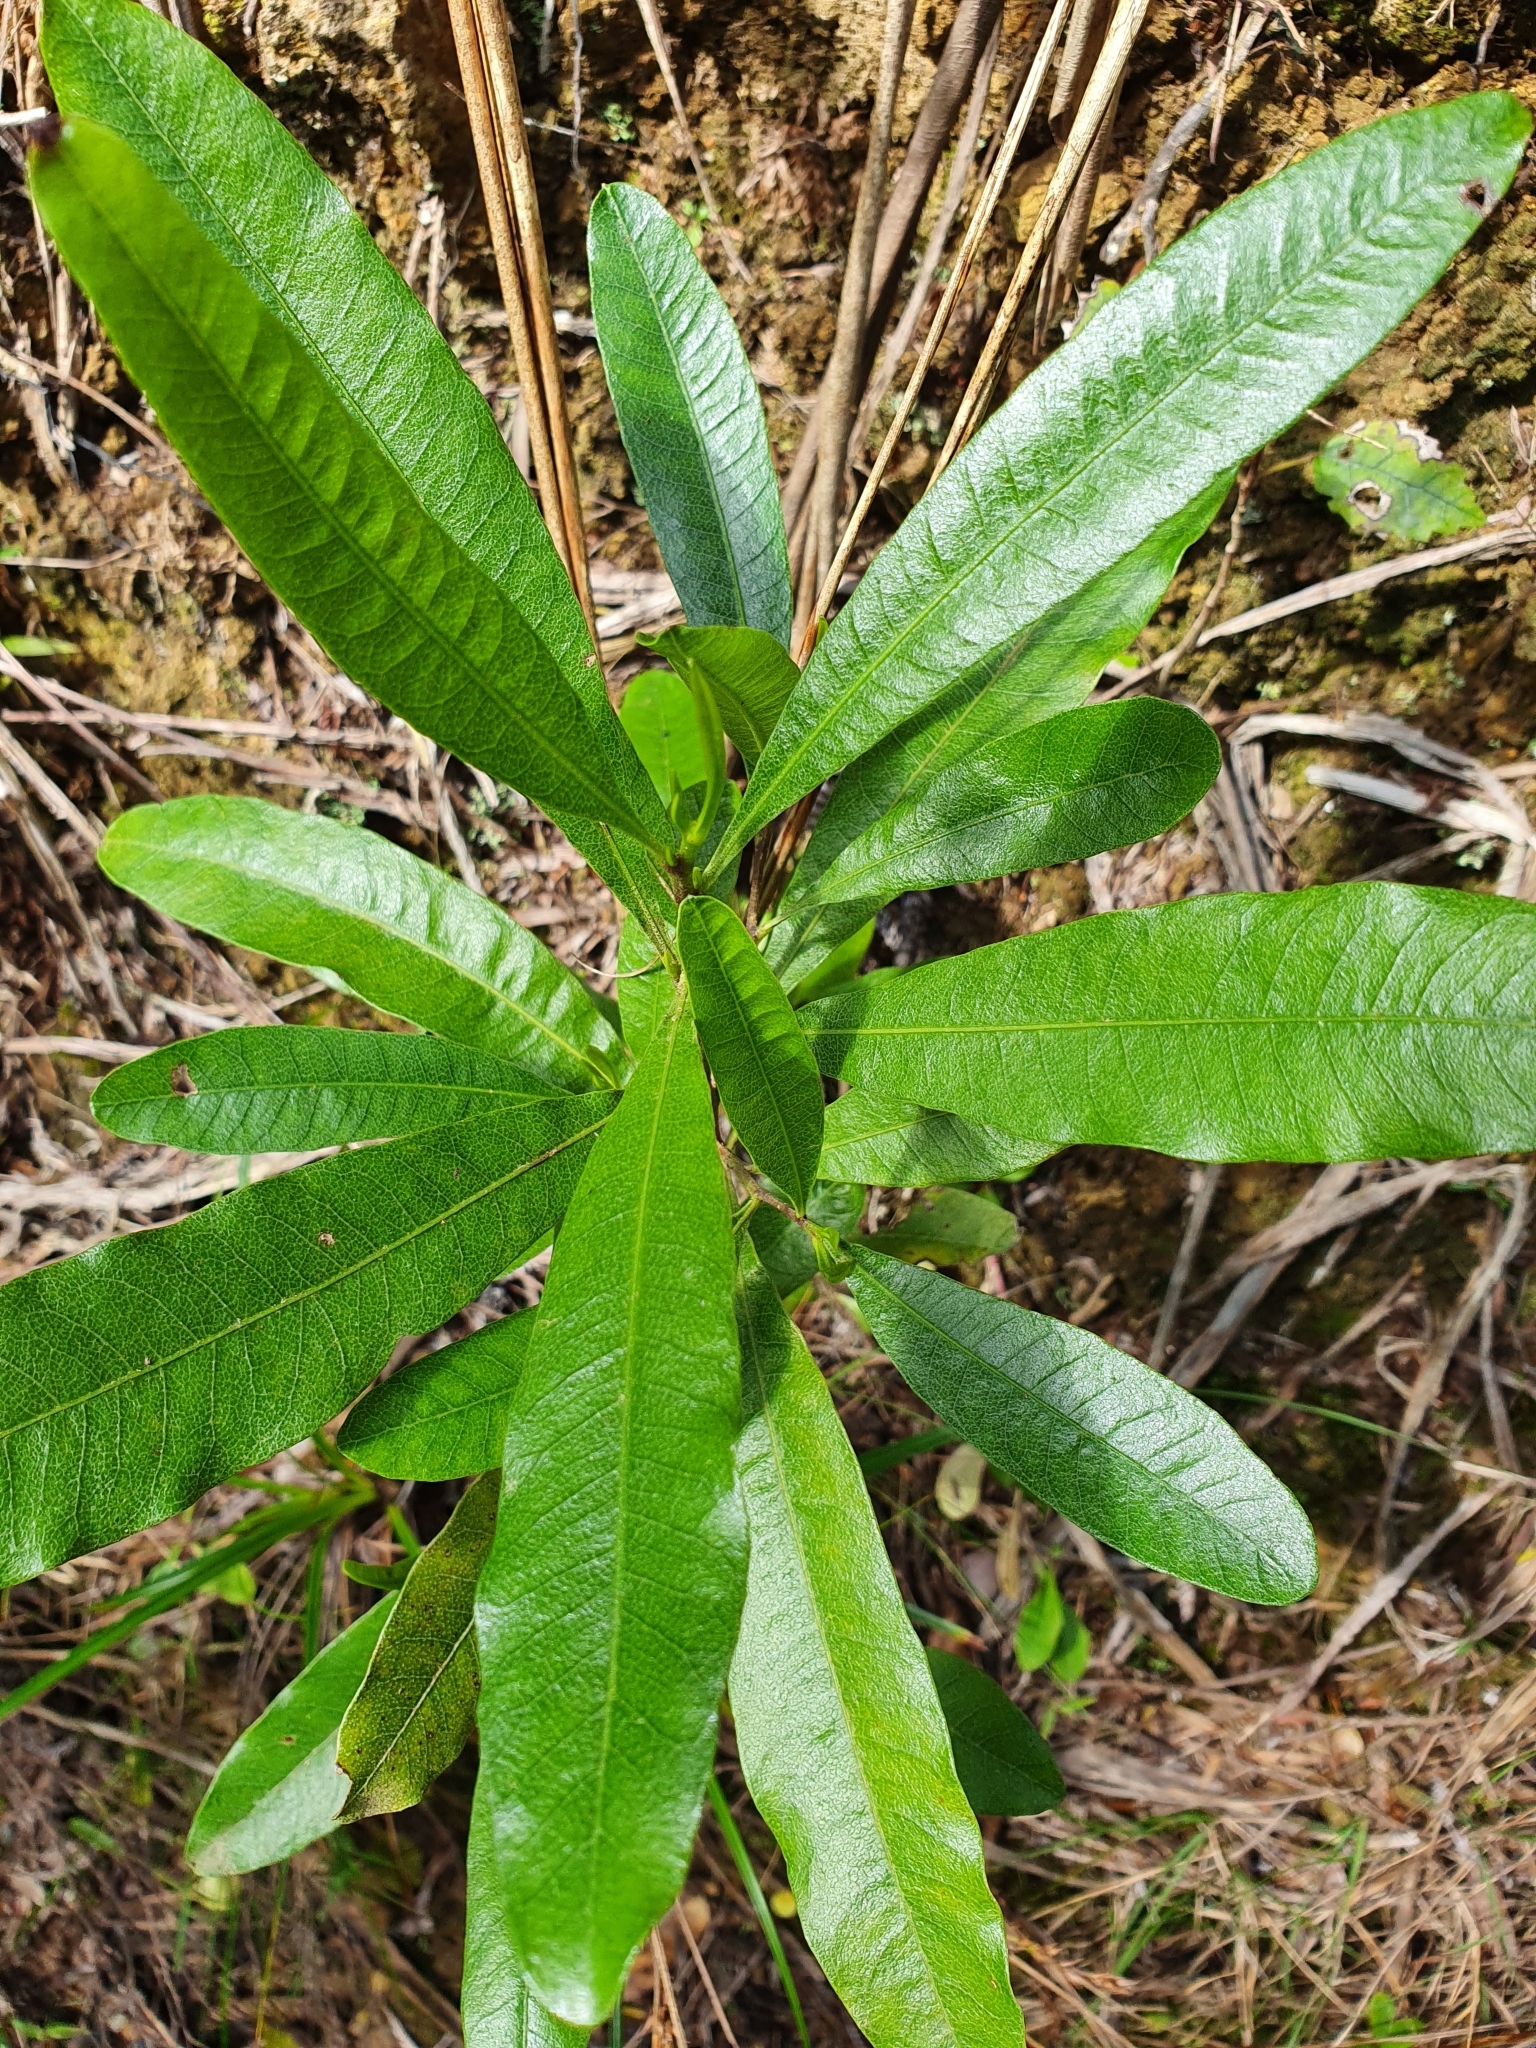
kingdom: Plantae
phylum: Tracheophyta
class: Magnoliopsida
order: Sapindales
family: Sapindaceae
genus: Dodonaea
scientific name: Dodonaea viscosa
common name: Hopbush
